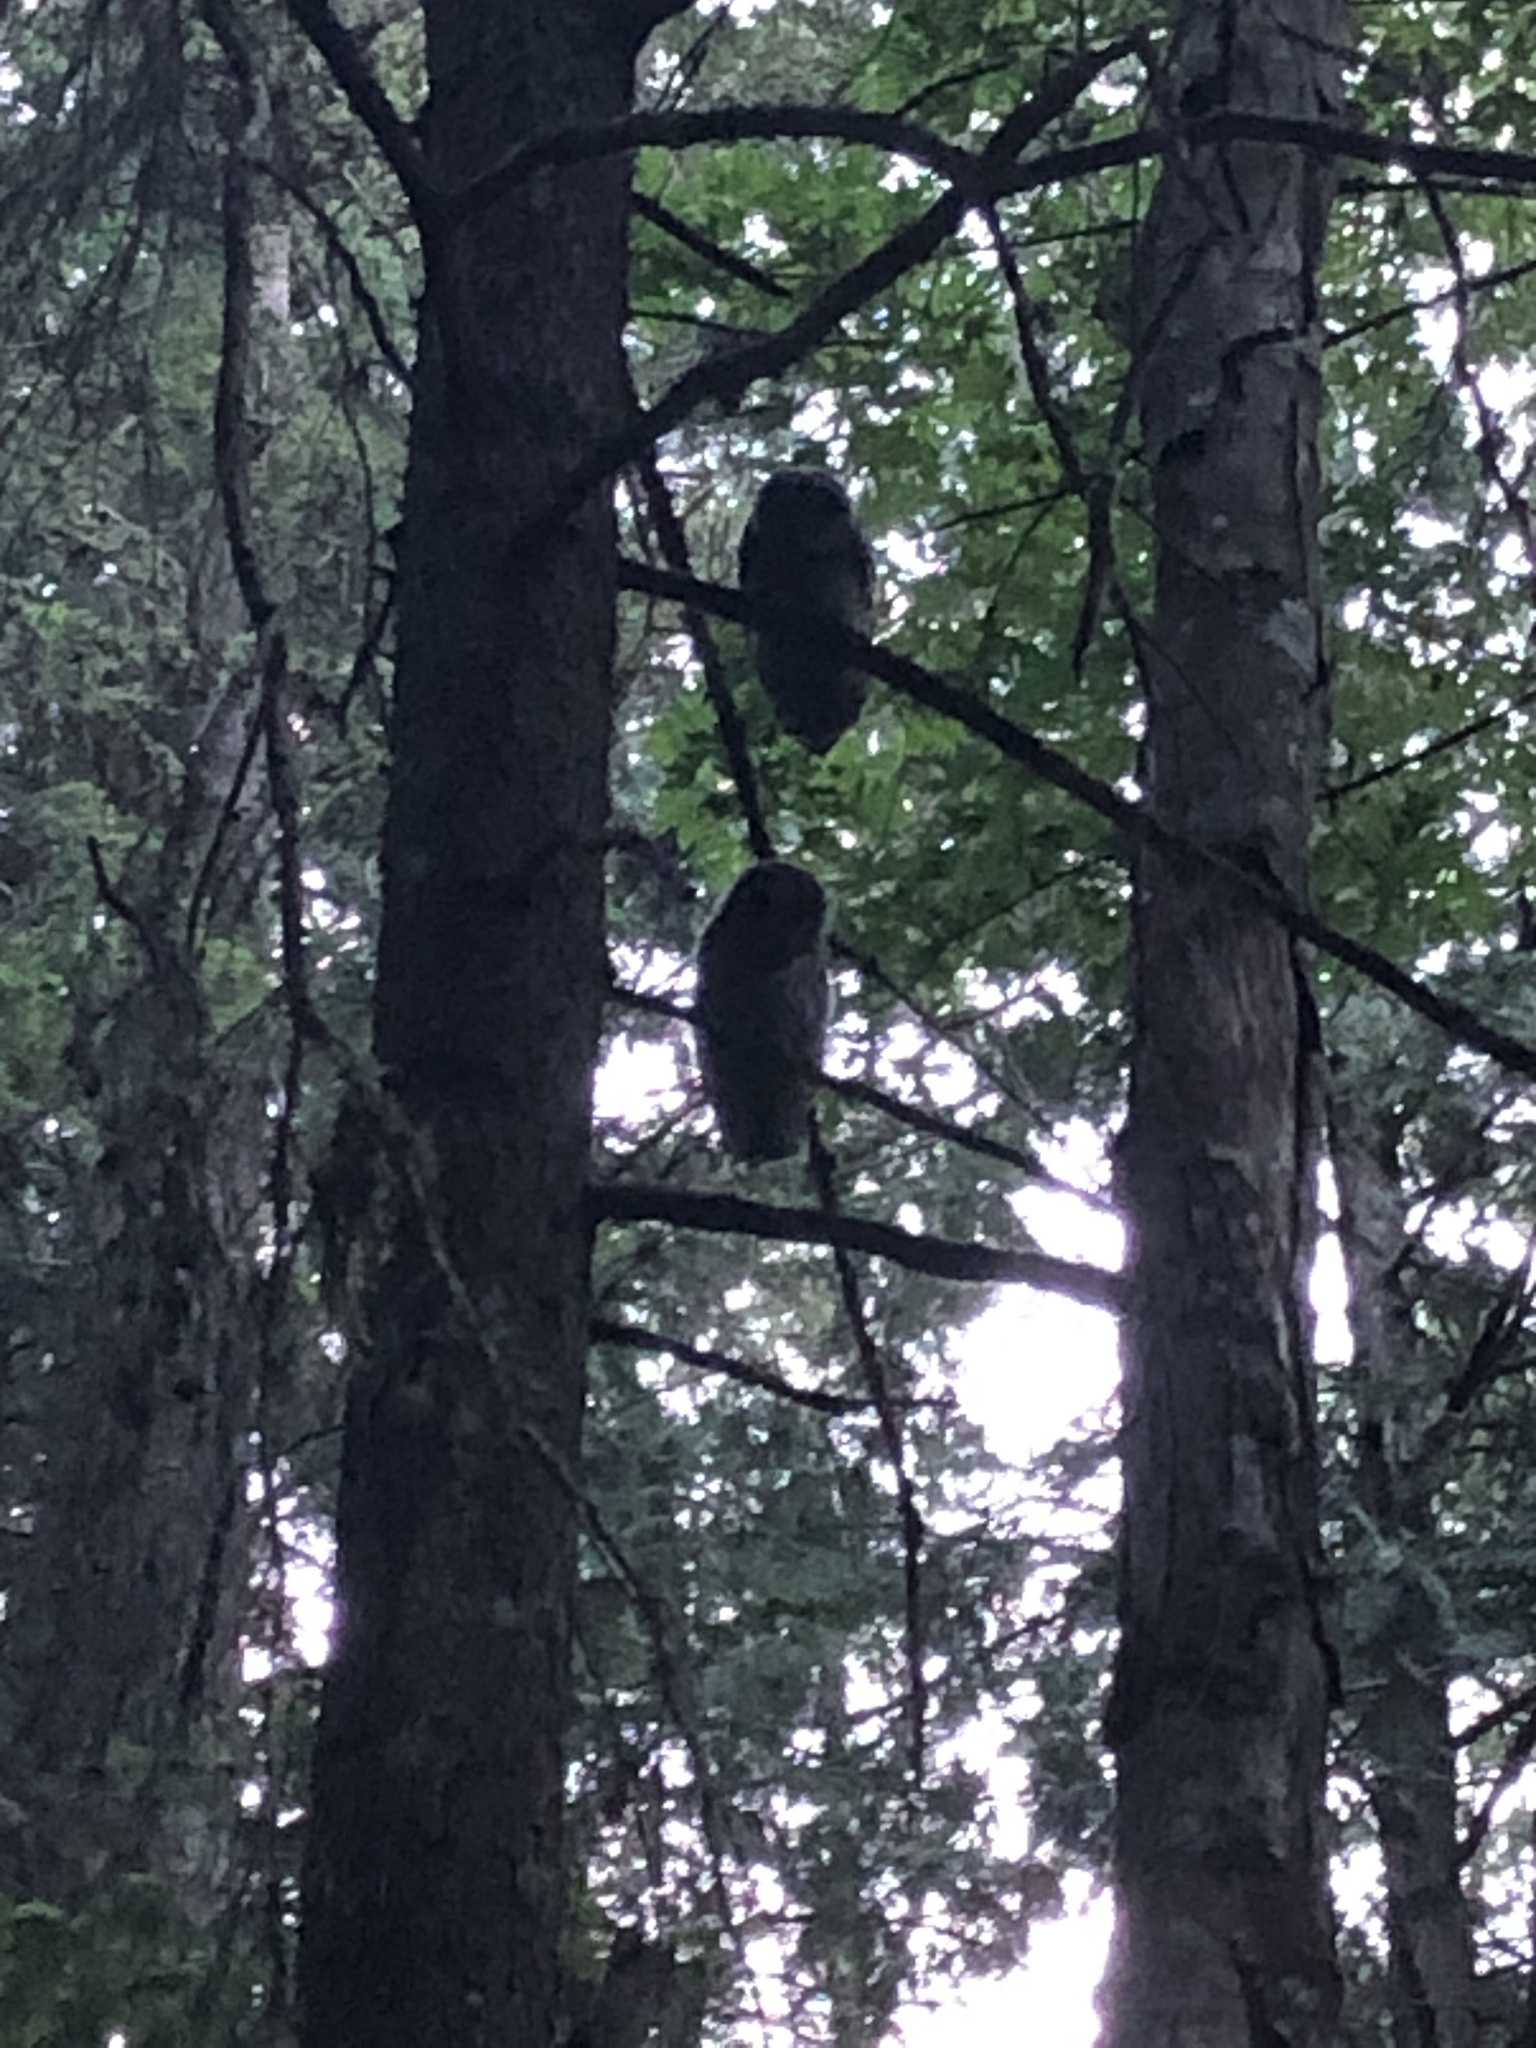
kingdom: Animalia
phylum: Chordata
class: Aves
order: Strigiformes
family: Strigidae
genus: Strix
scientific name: Strix varia
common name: Barred owl
